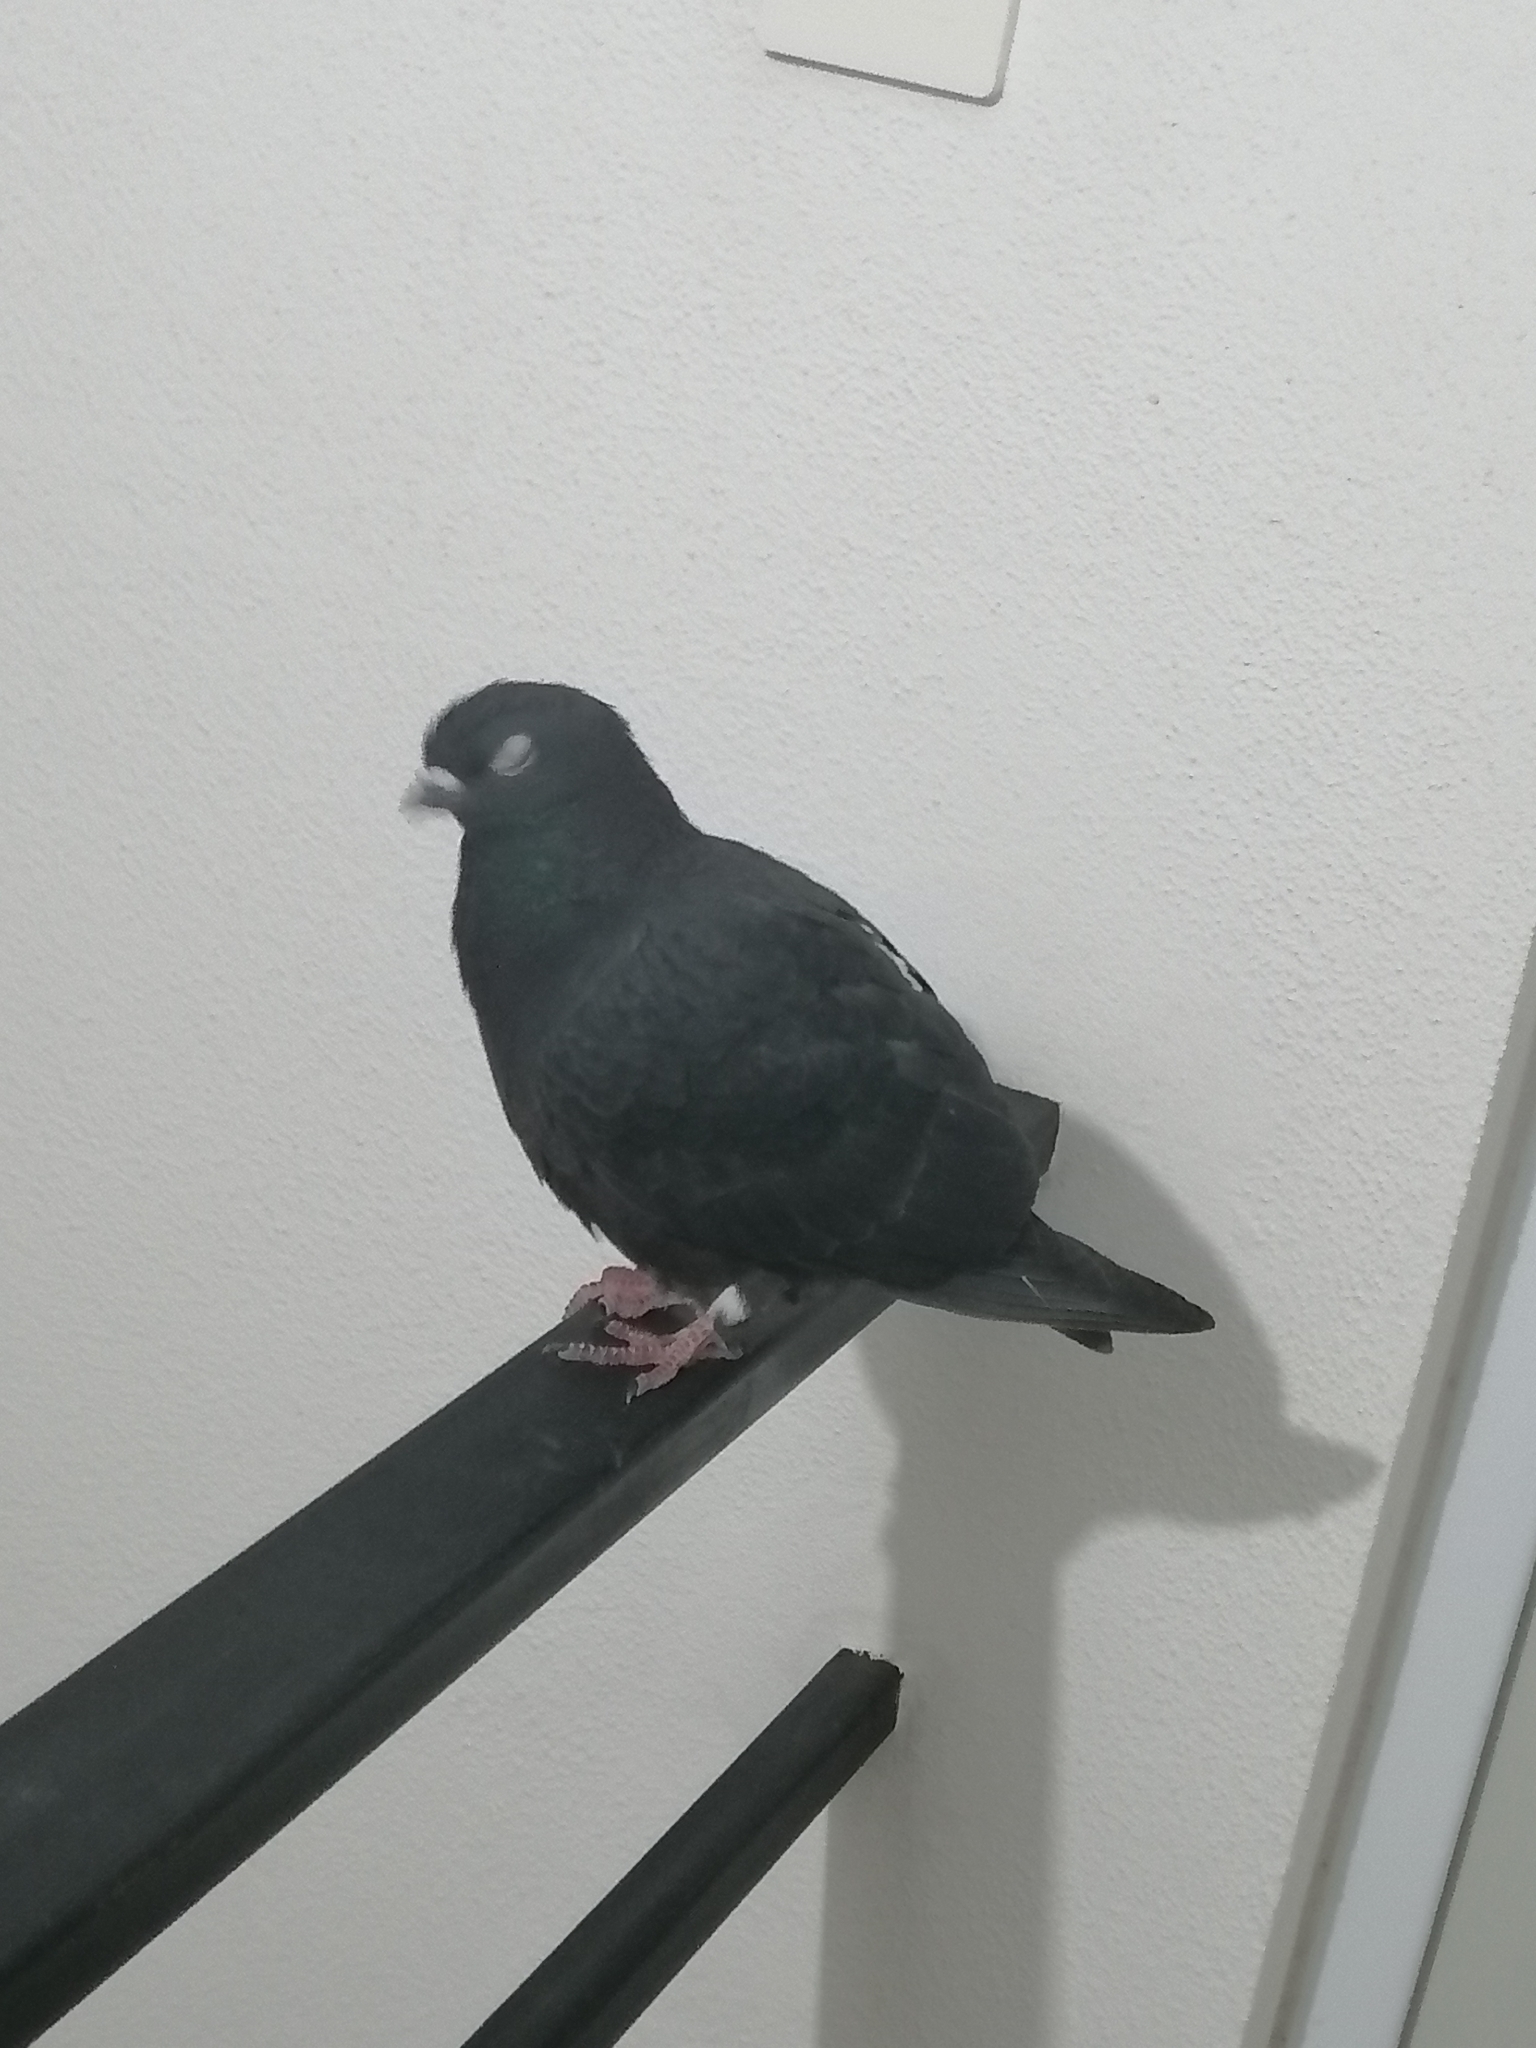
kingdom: Animalia
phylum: Chordata
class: Aves
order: Columbiformes
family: Columbidae
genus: Columba
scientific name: Columba livia
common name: Rock pigeon
